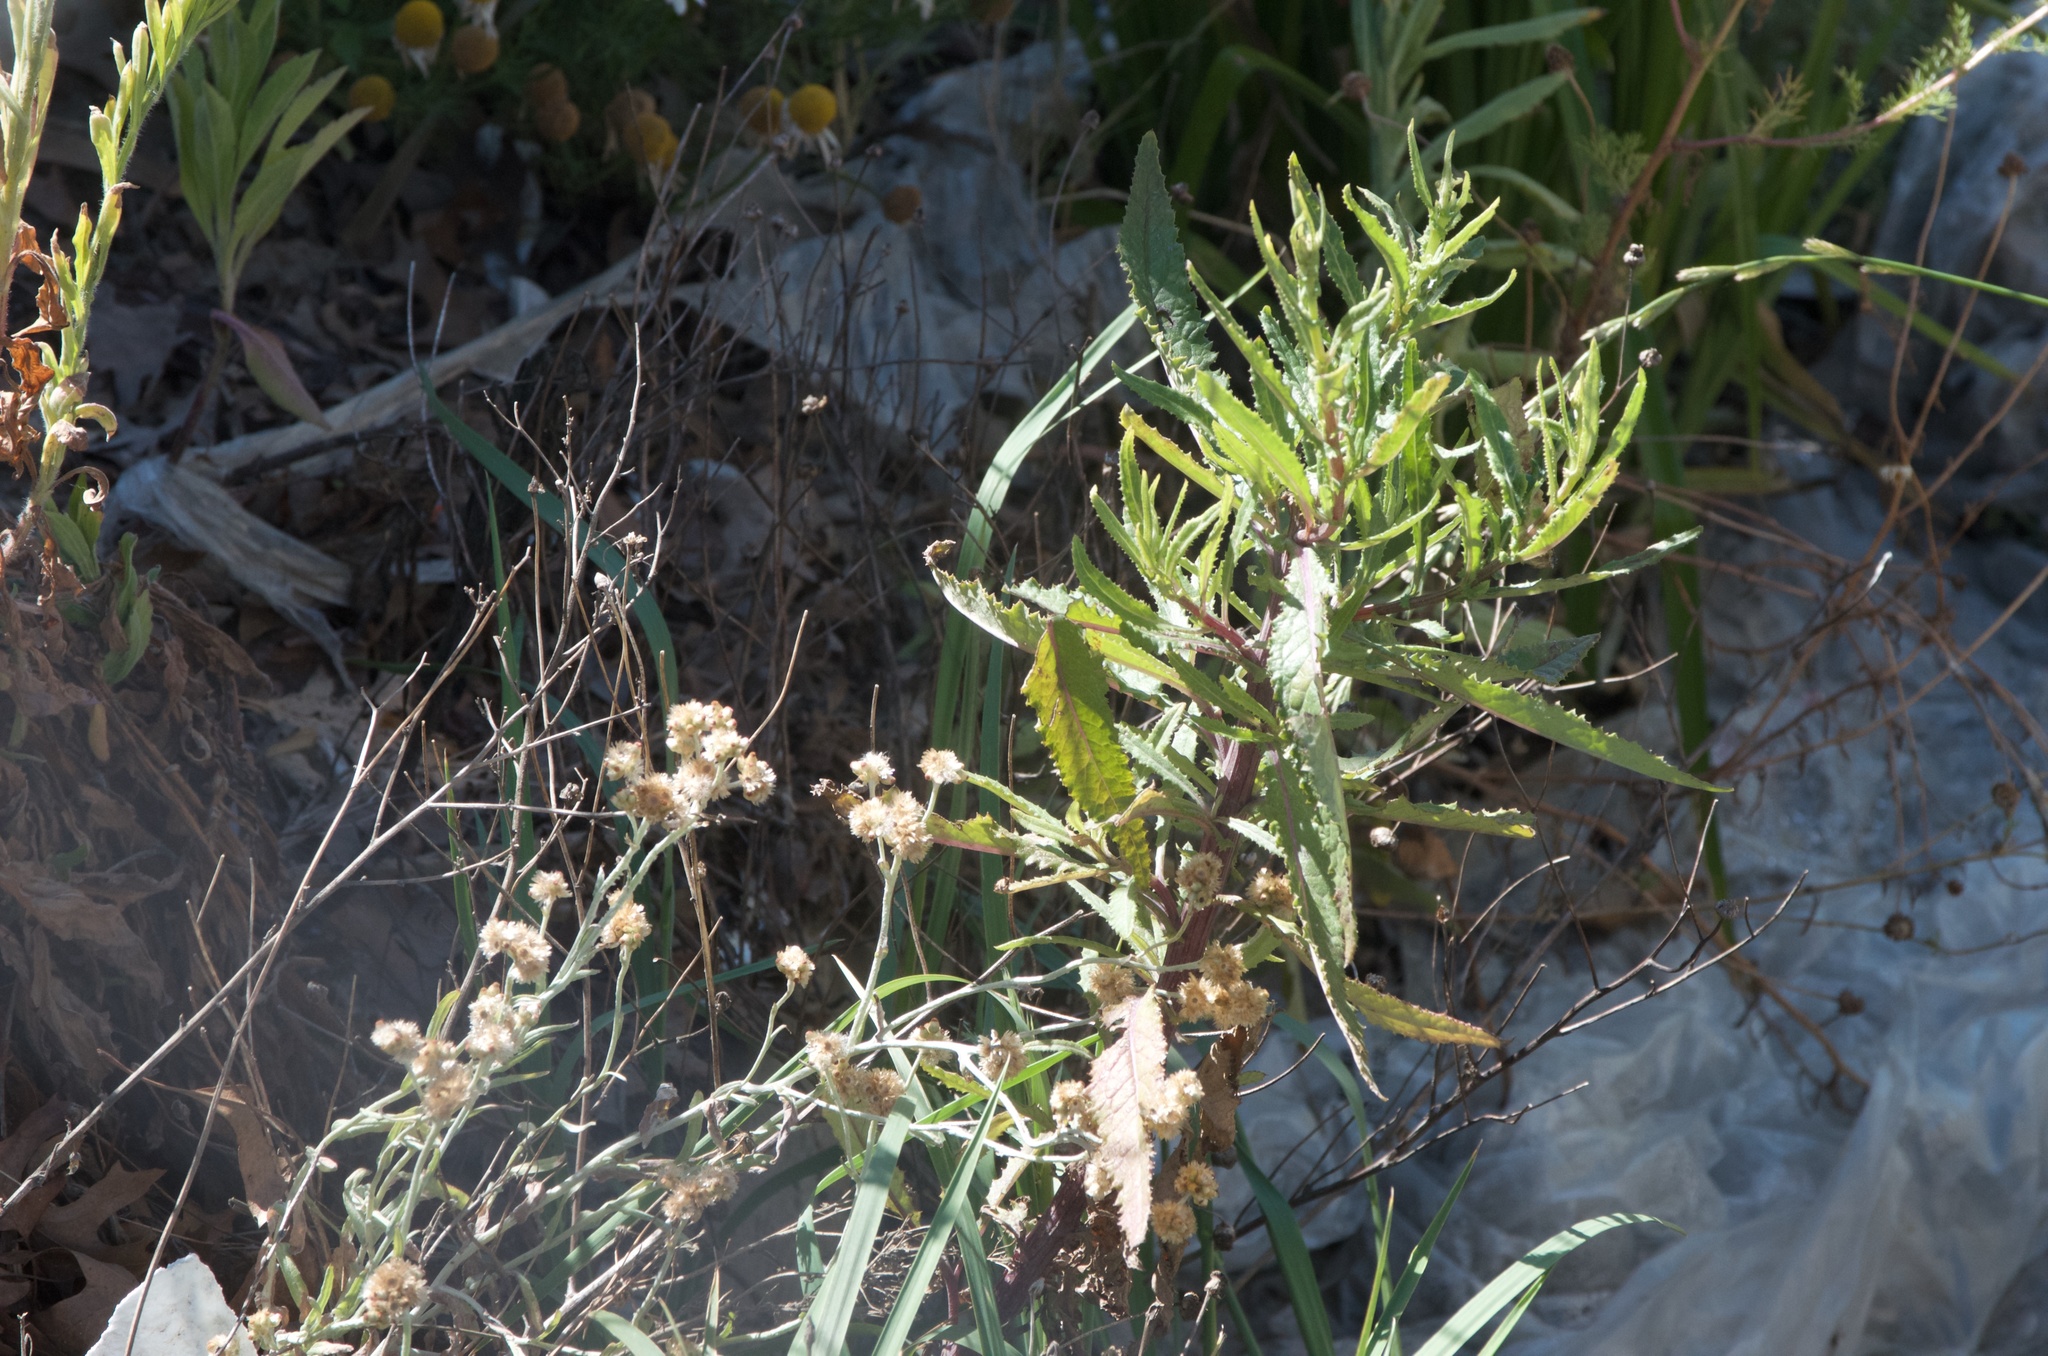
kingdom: Plantae
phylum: Tracheophyta
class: Magnoliopsida
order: Asterales
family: Asteraceae
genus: Senecio
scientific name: Senecio minimus
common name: Toothed fireweed
